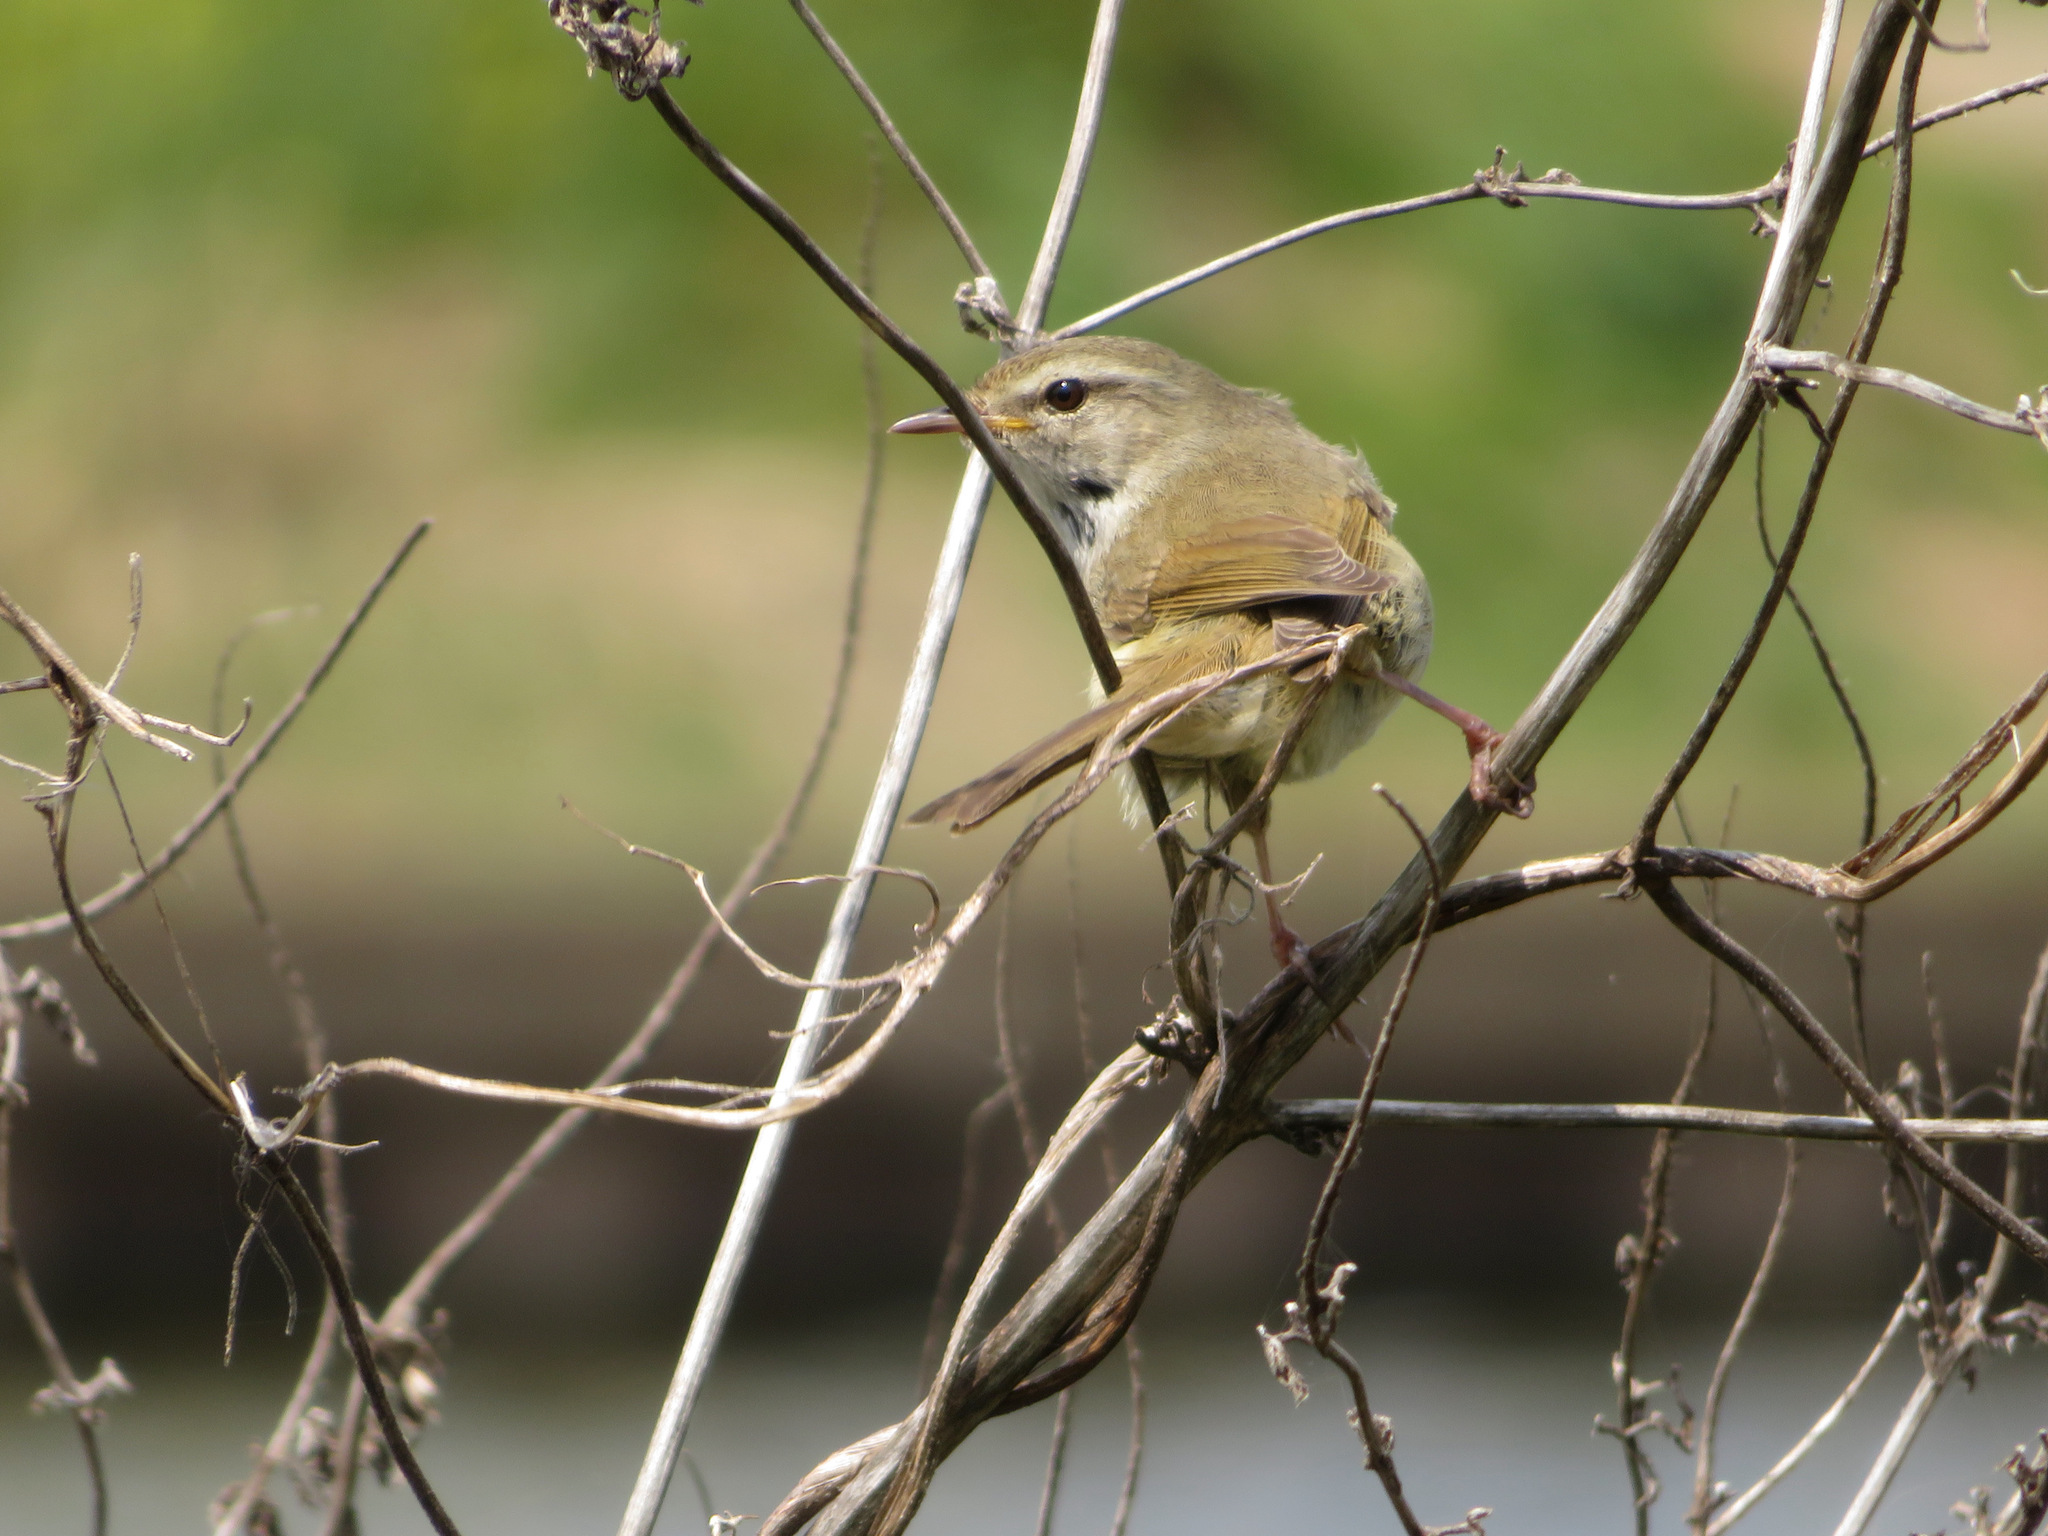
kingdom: Animalia
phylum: Chordata
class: Aves
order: Passeriformes
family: Cettiidae
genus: Horornis
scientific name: Horornis diphone
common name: Japanese bush warbler
